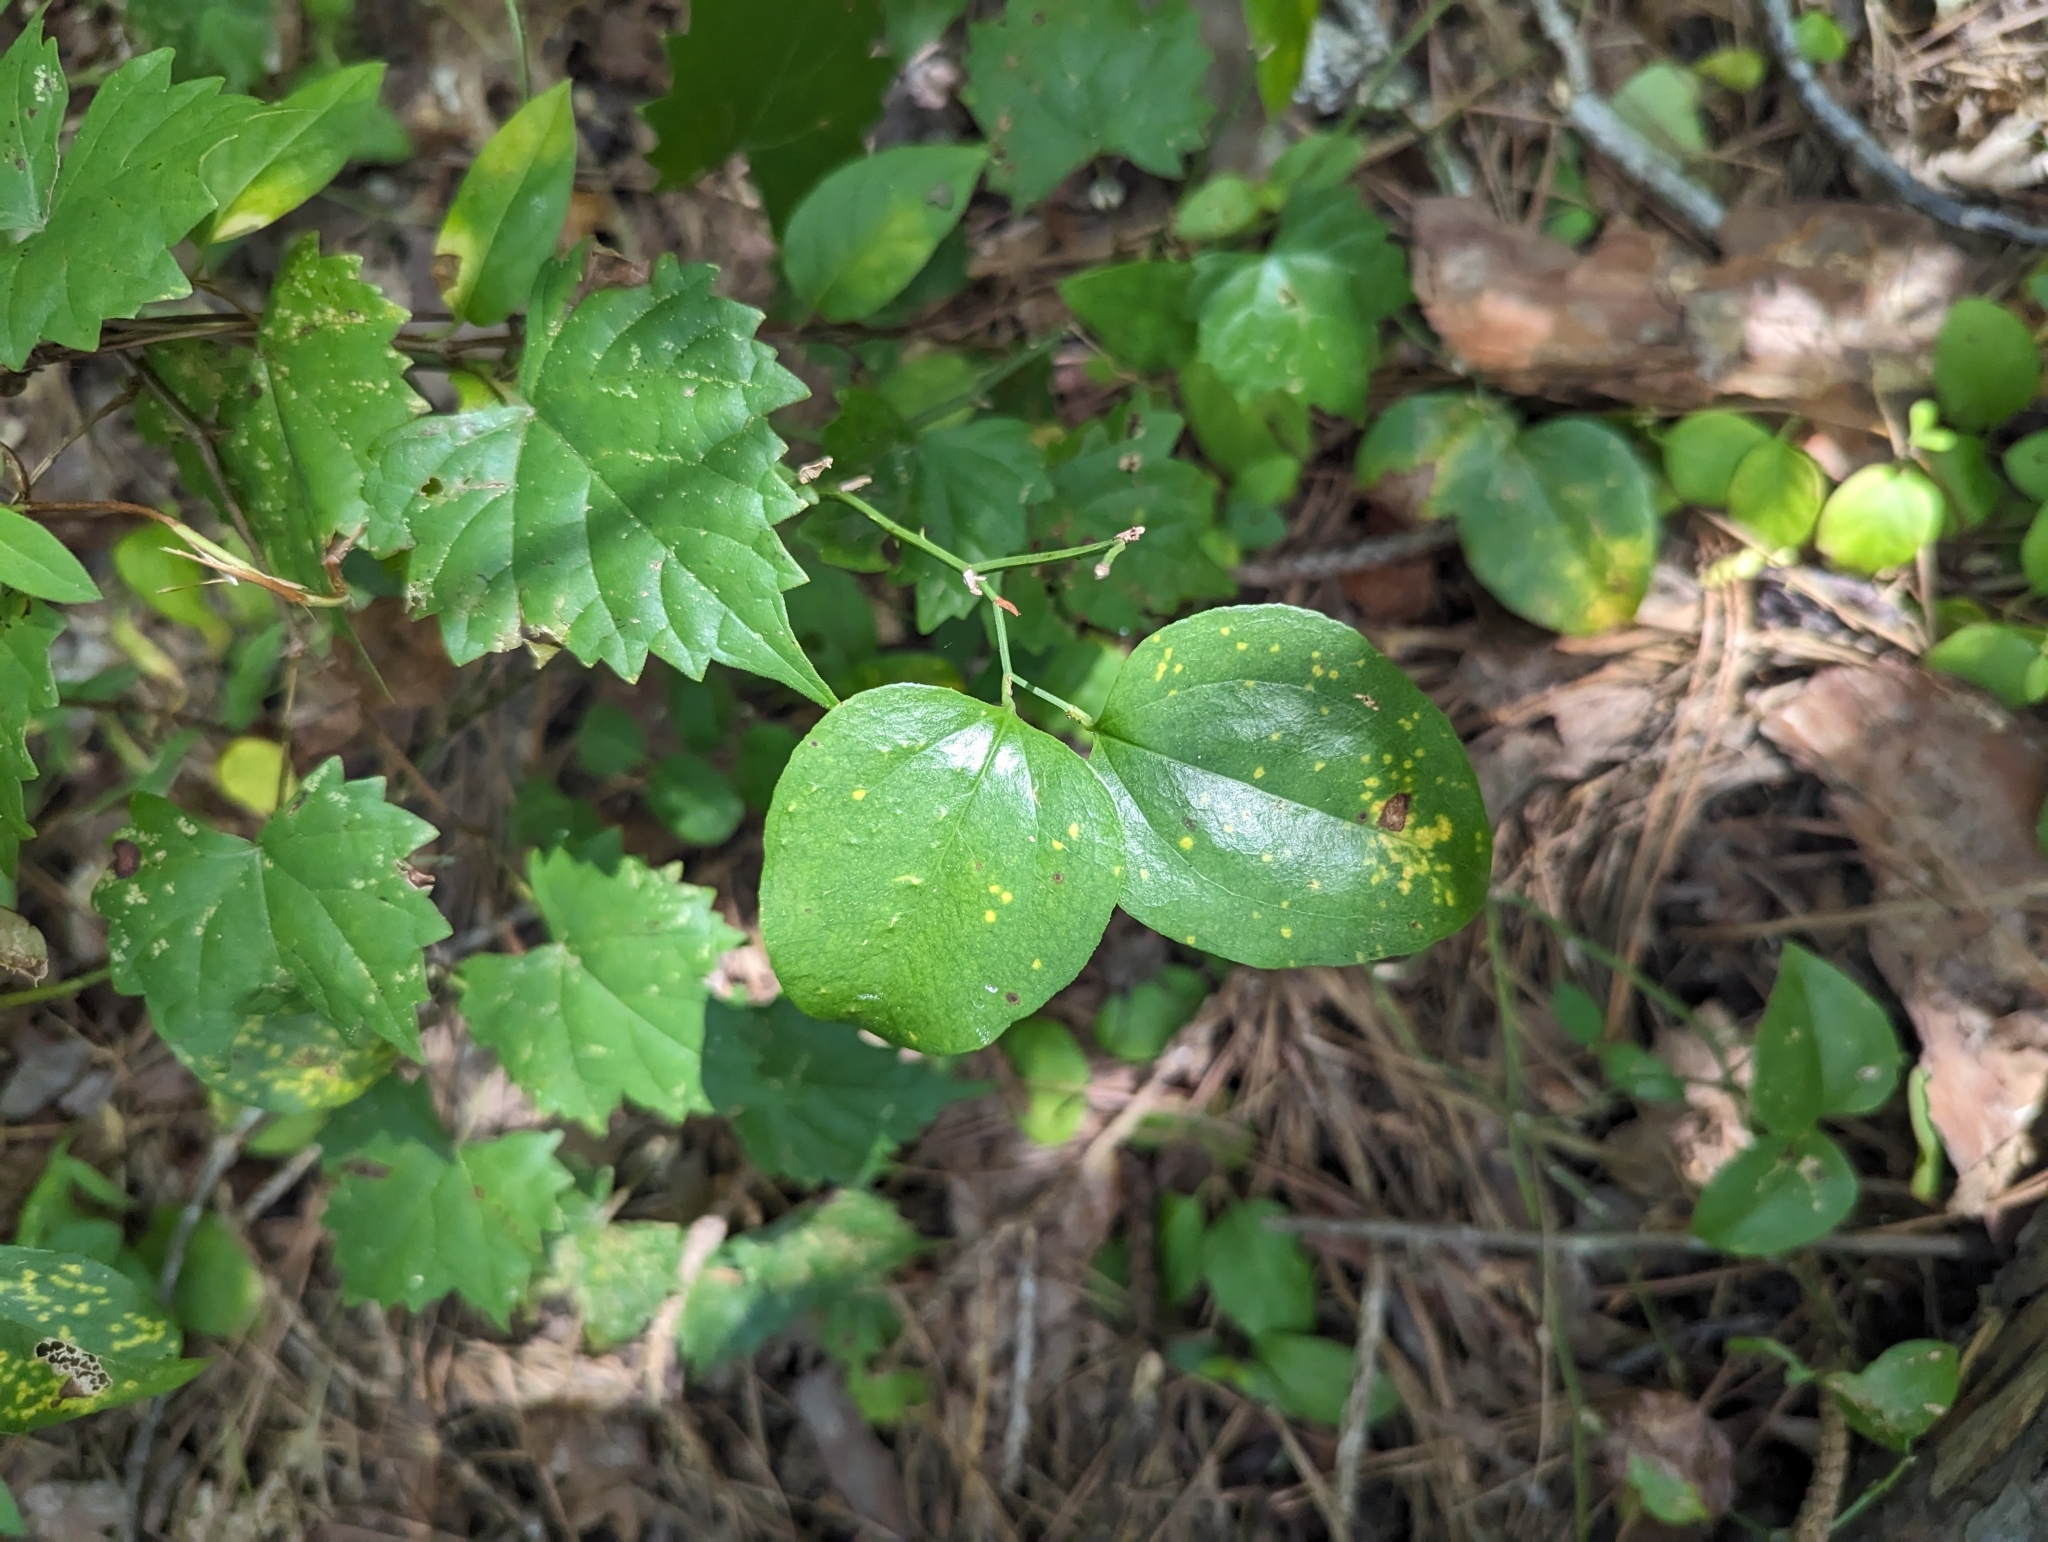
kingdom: Plantae
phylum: Tracheophyta
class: Liliopsida
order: Liliales
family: Smilacaceae
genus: Smilax
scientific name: Smilax rotundifolia
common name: Bullbriar
